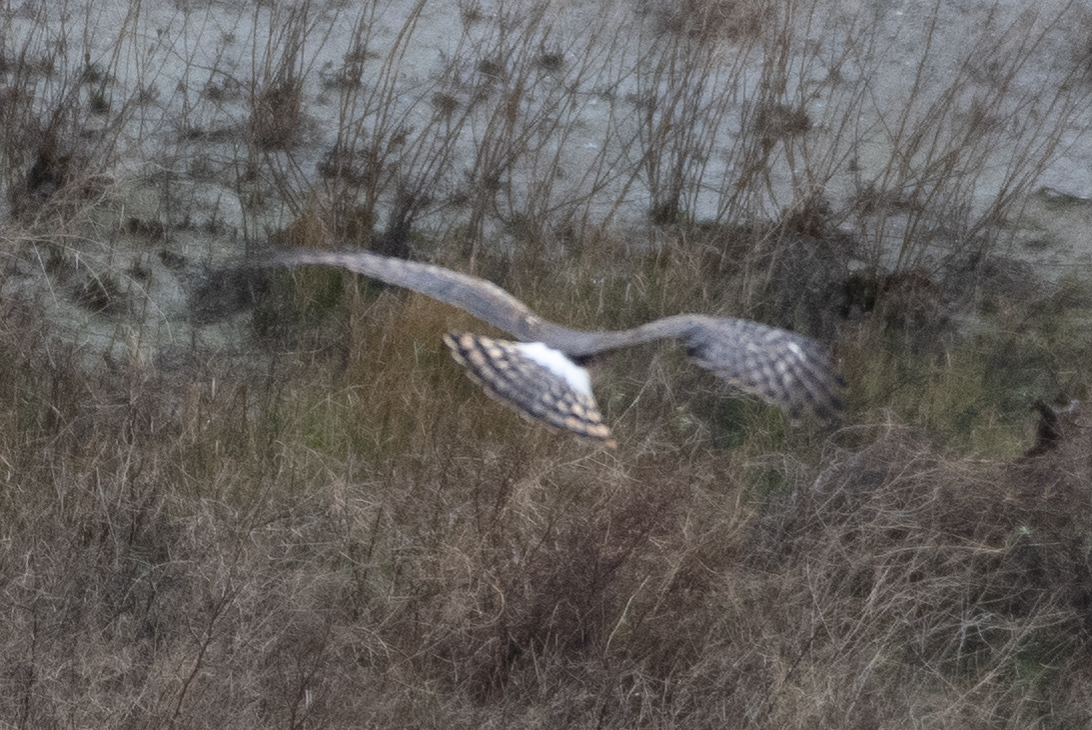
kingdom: Animalia
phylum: Chordata
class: Aves
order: Accipitriformes
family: Accipitridae
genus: Circus
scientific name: Circus cyaneus
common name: Hen harrier
